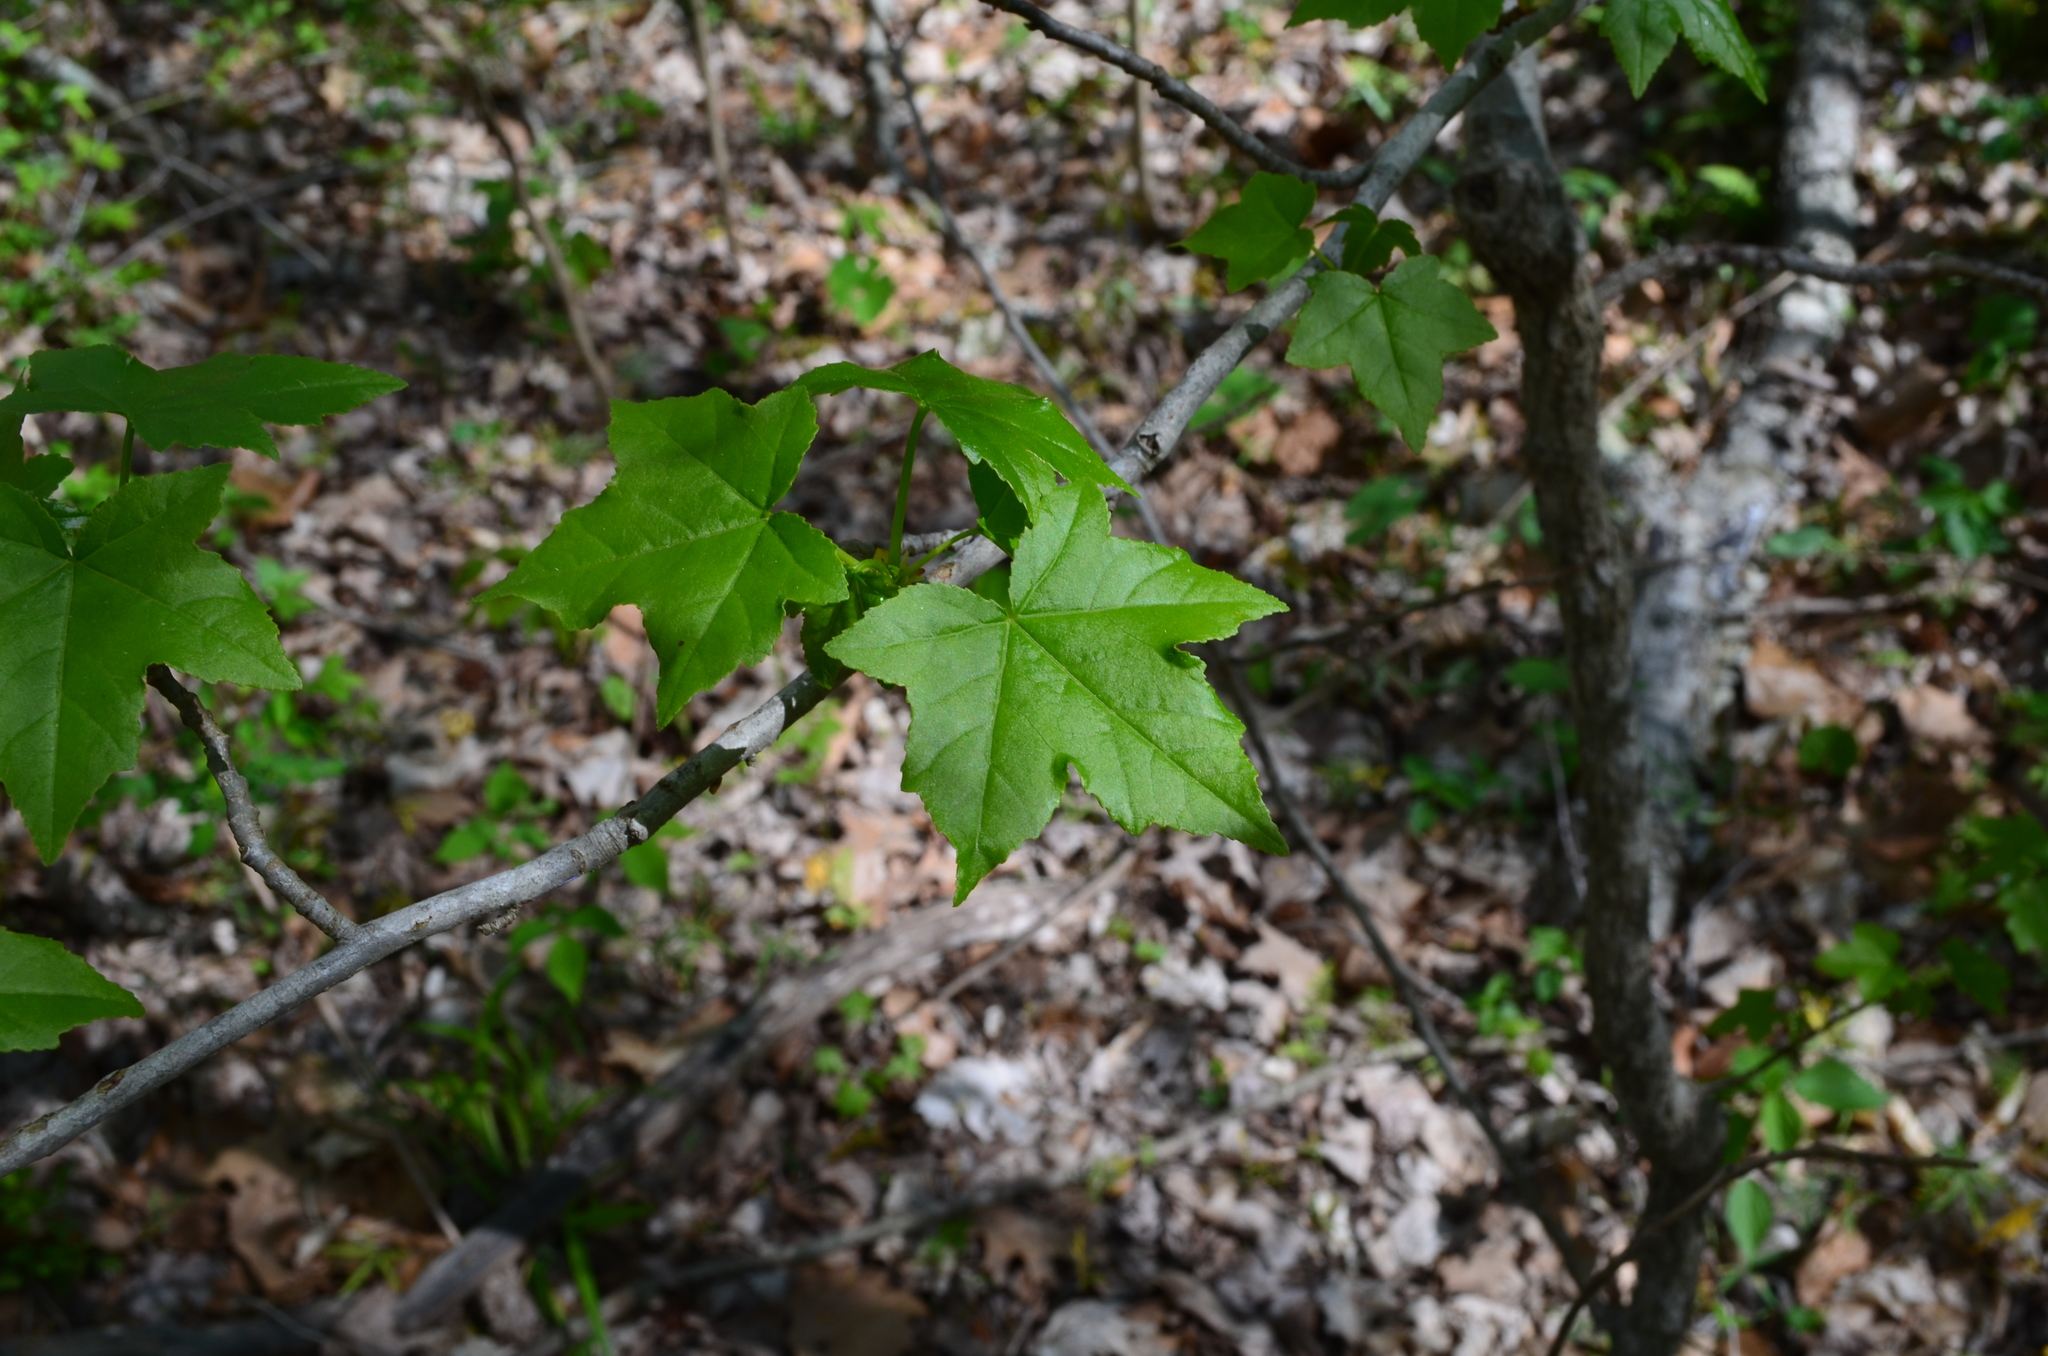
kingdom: Plantae
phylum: Tracheophyta
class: Magnoliopsida
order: Saxifragales
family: Altingiaceae
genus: Liquidambar
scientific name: Liquidambar styraciflua
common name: Sweet gum
